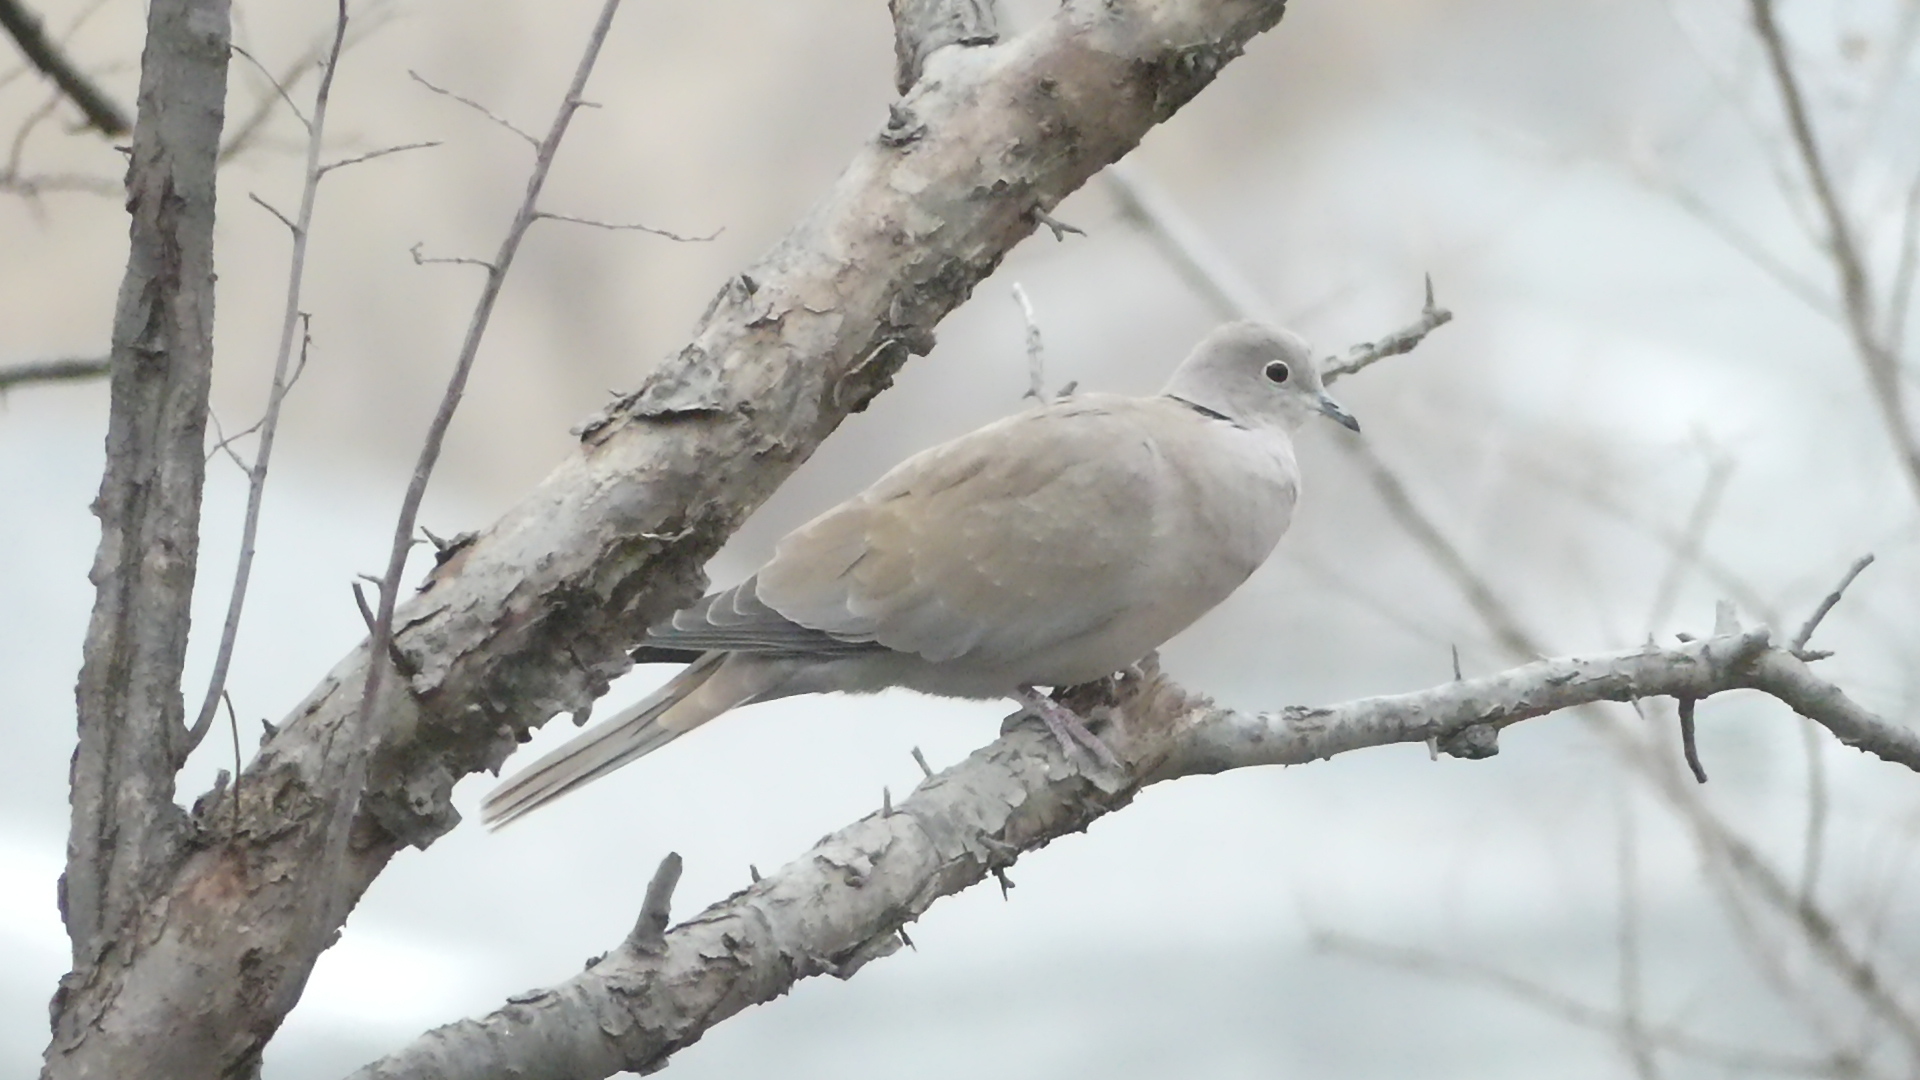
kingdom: Animalia
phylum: Chordata
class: Aves
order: Columbiformes
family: Columbidae
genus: Streptopelia
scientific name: Streptopelia decaocto
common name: Eurasian collared dove
